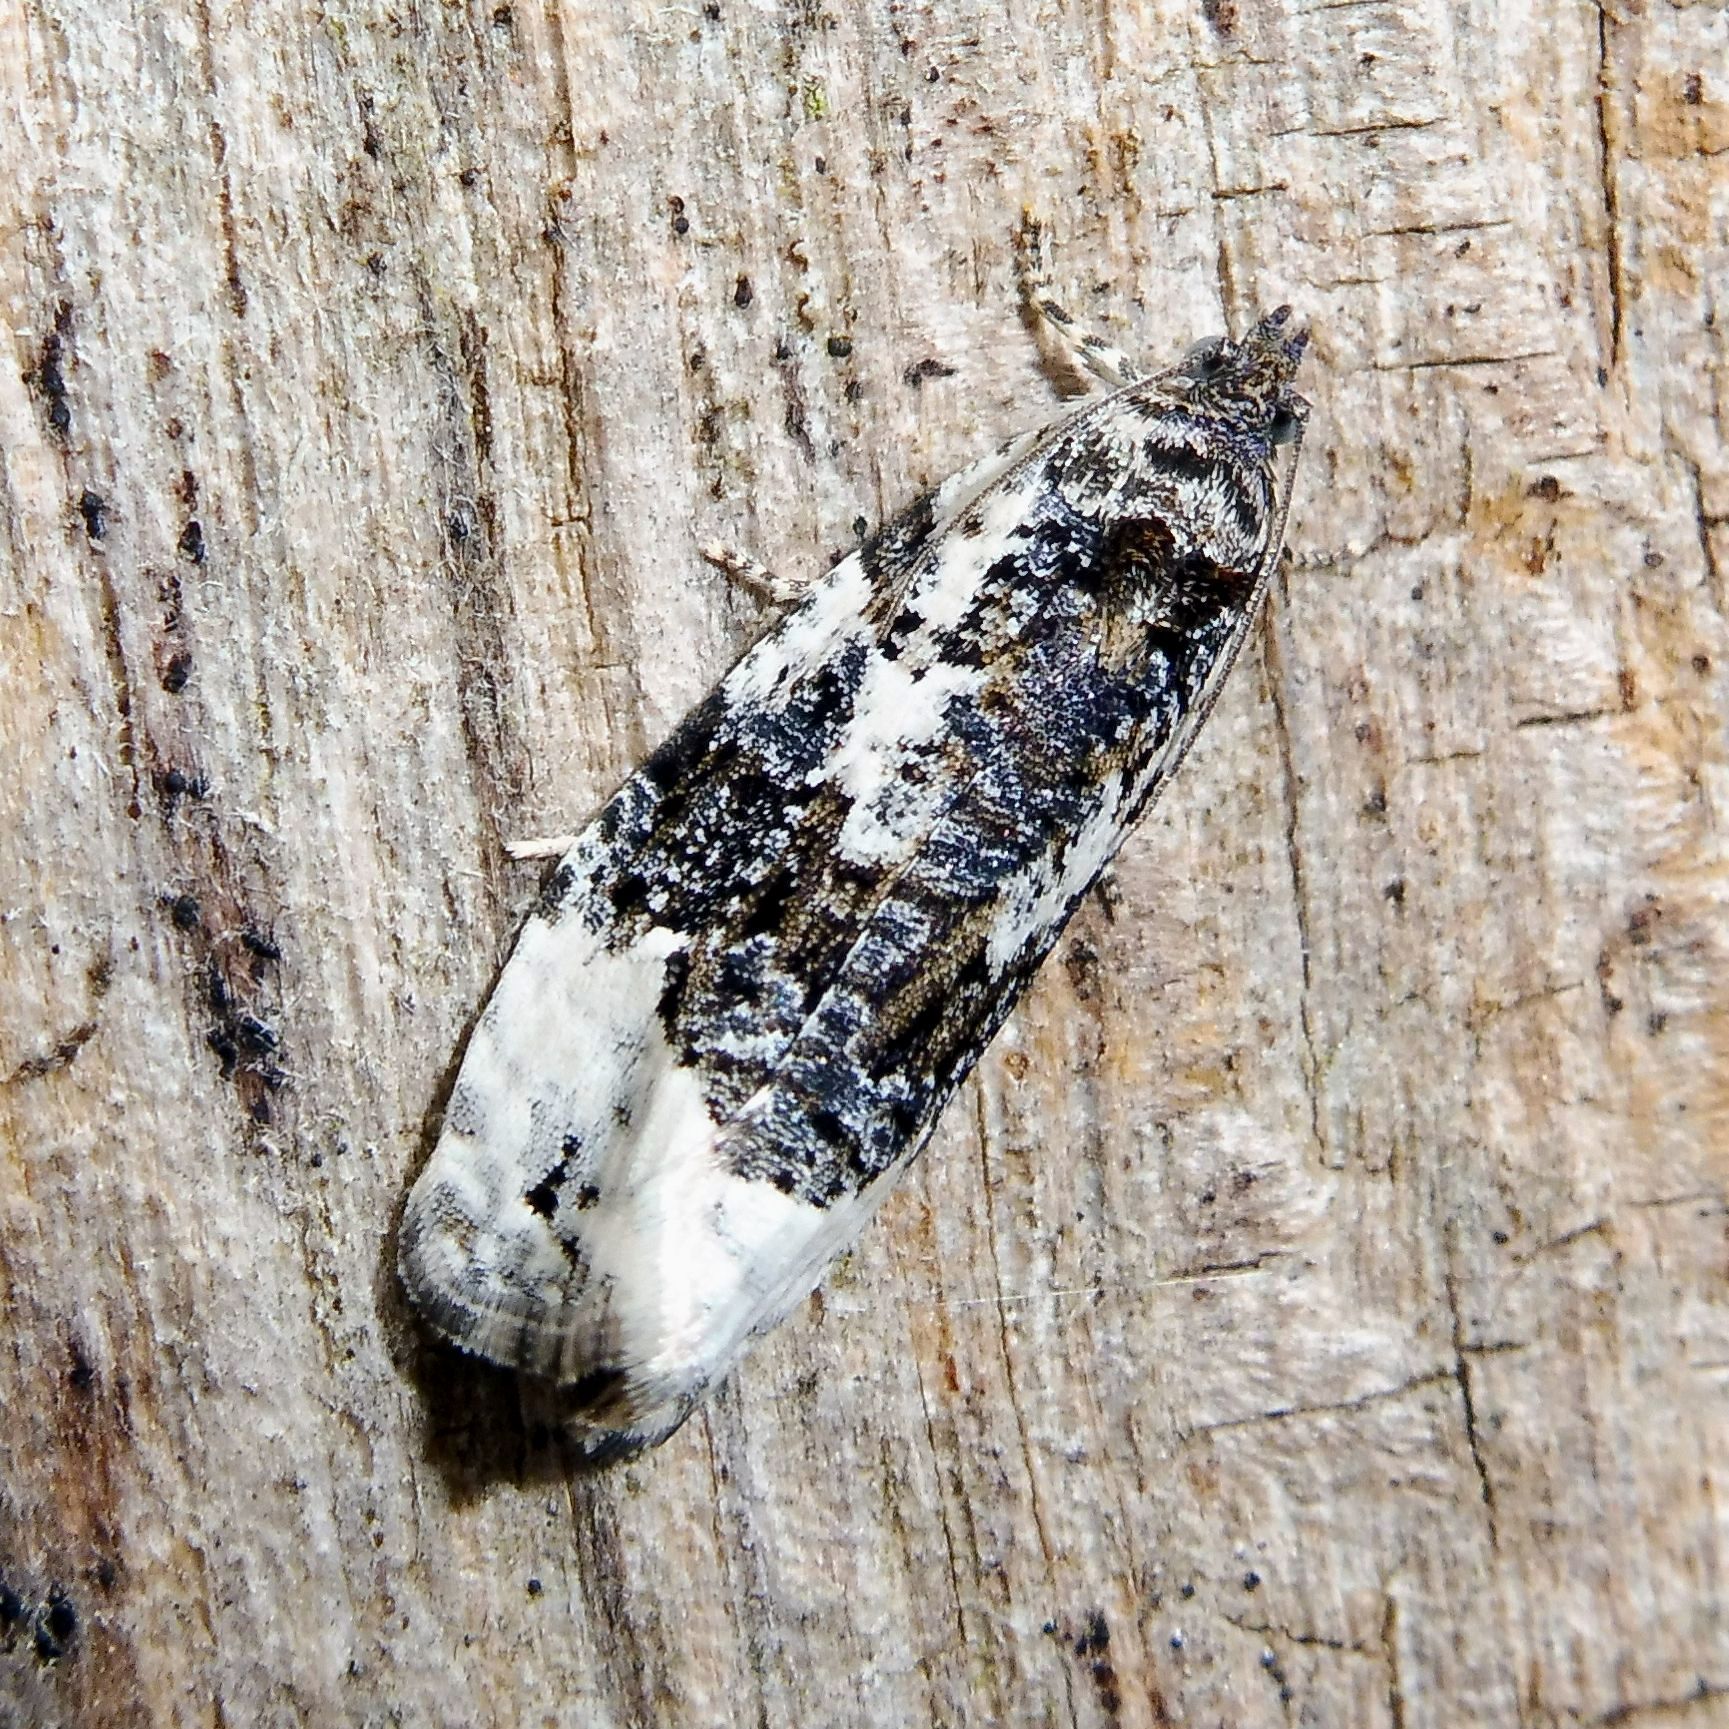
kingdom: Animalia
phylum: Arthropoda
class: Insecta
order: Lepidoptera
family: Tortricidae
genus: Apotomis
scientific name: Apotomis turbidana
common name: White-shouldered marble
